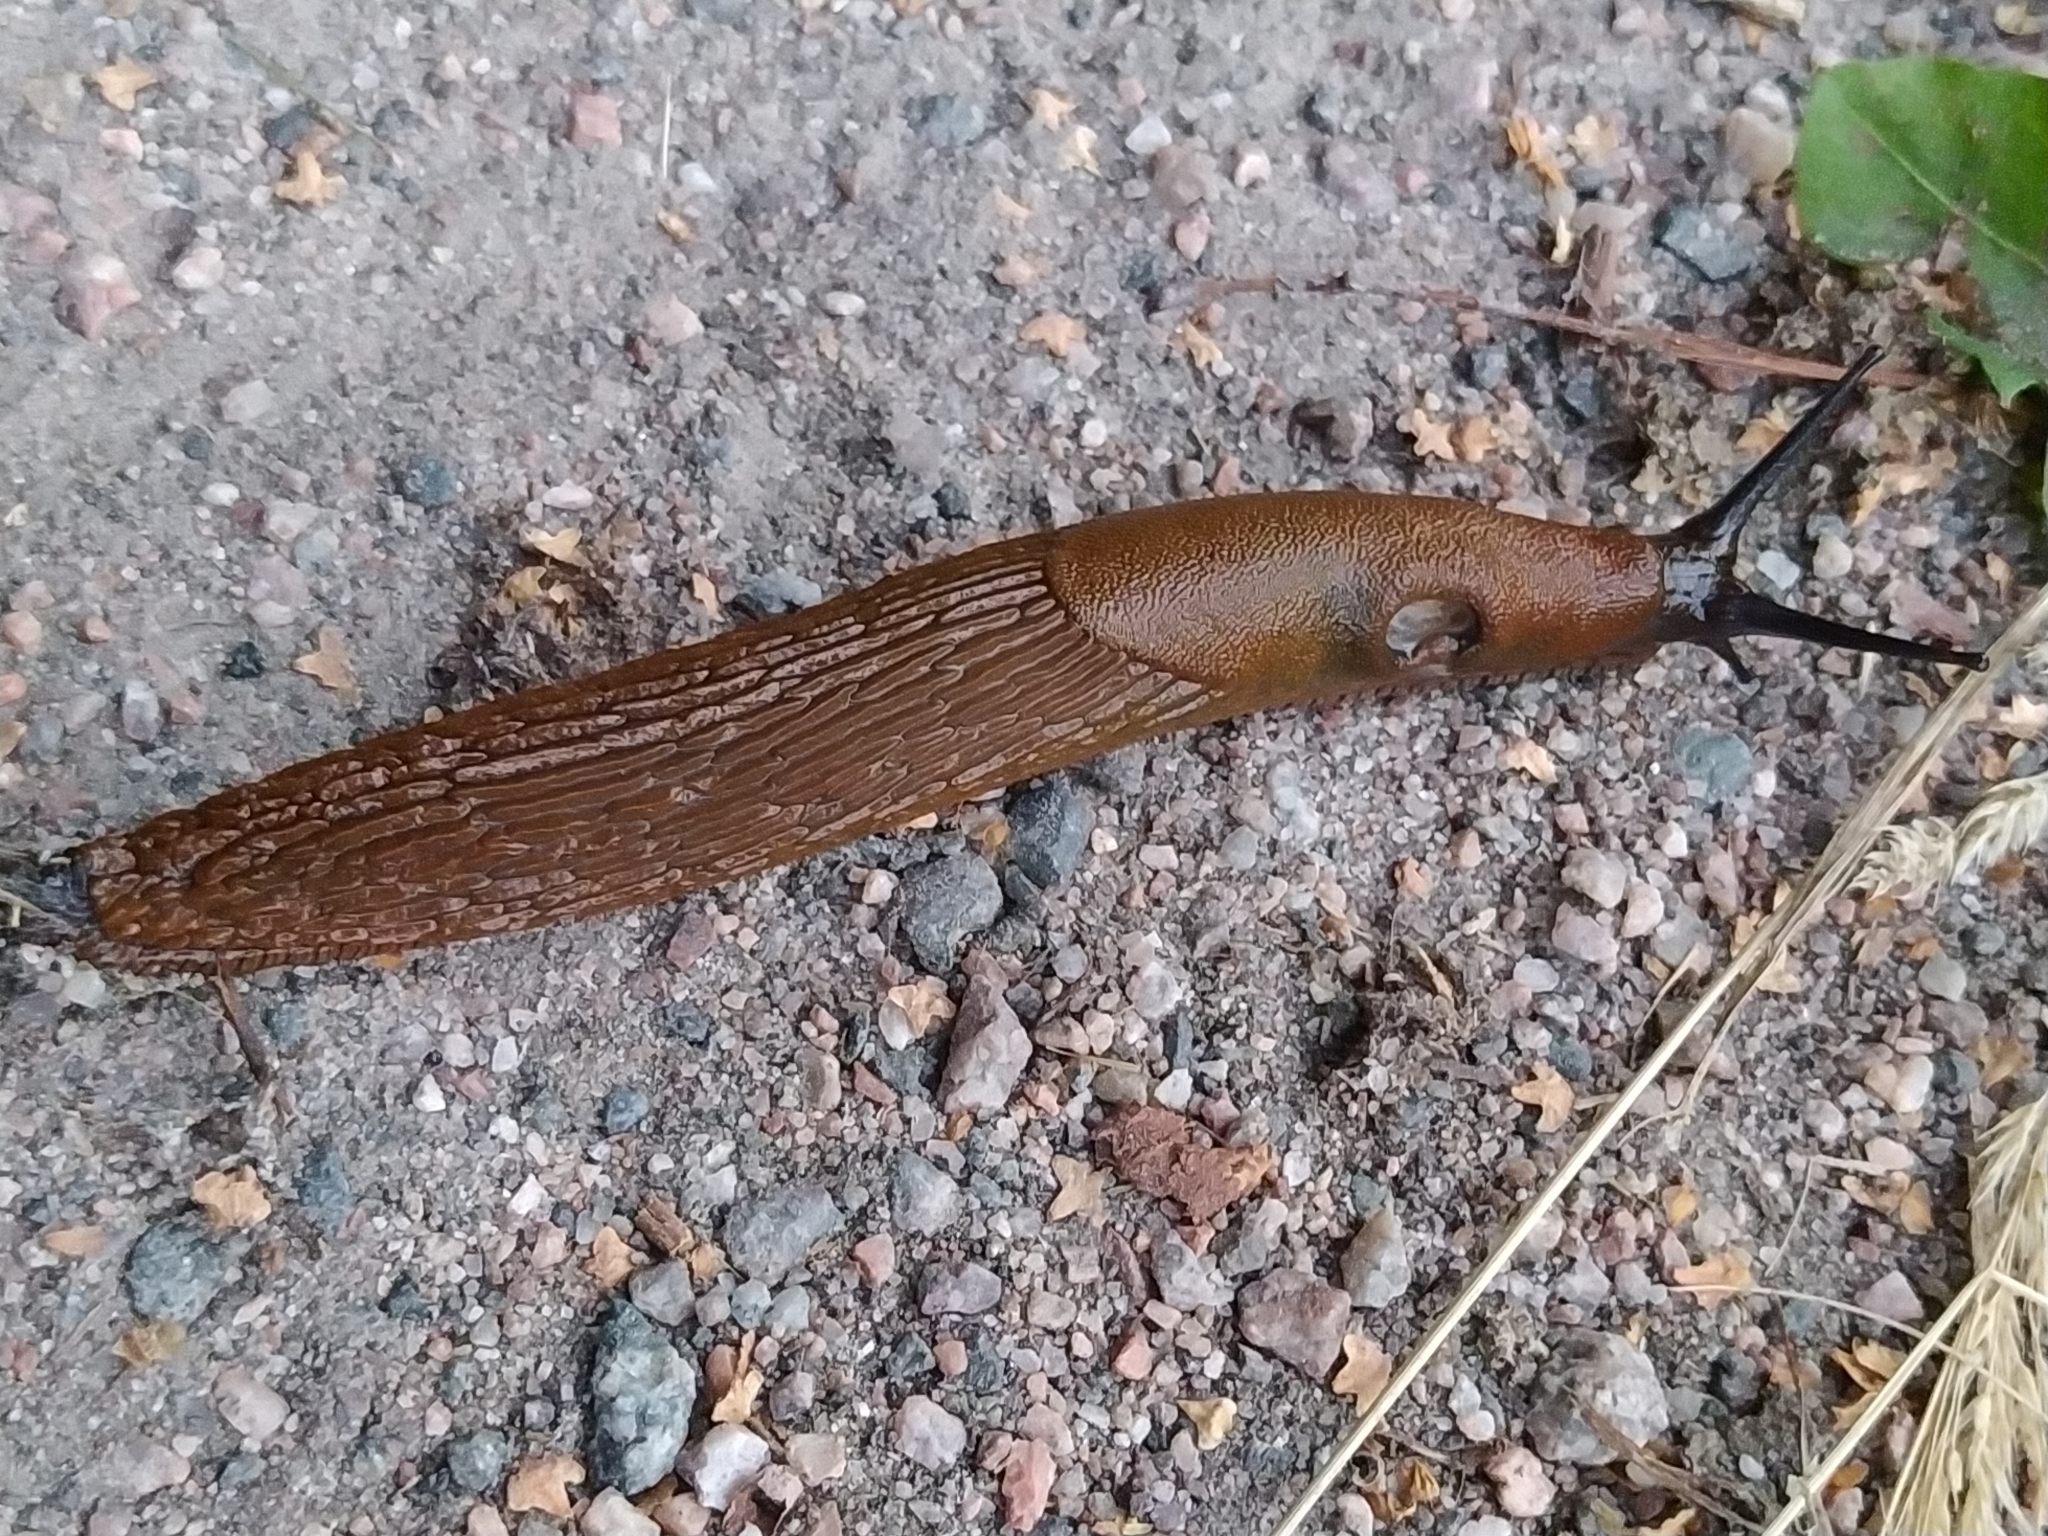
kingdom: Animalia
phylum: Mollusca
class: Gastropoda
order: Stylommatophora
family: Arionidae
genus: Arion
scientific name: Arion vulgaris
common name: Lusitanian slug
